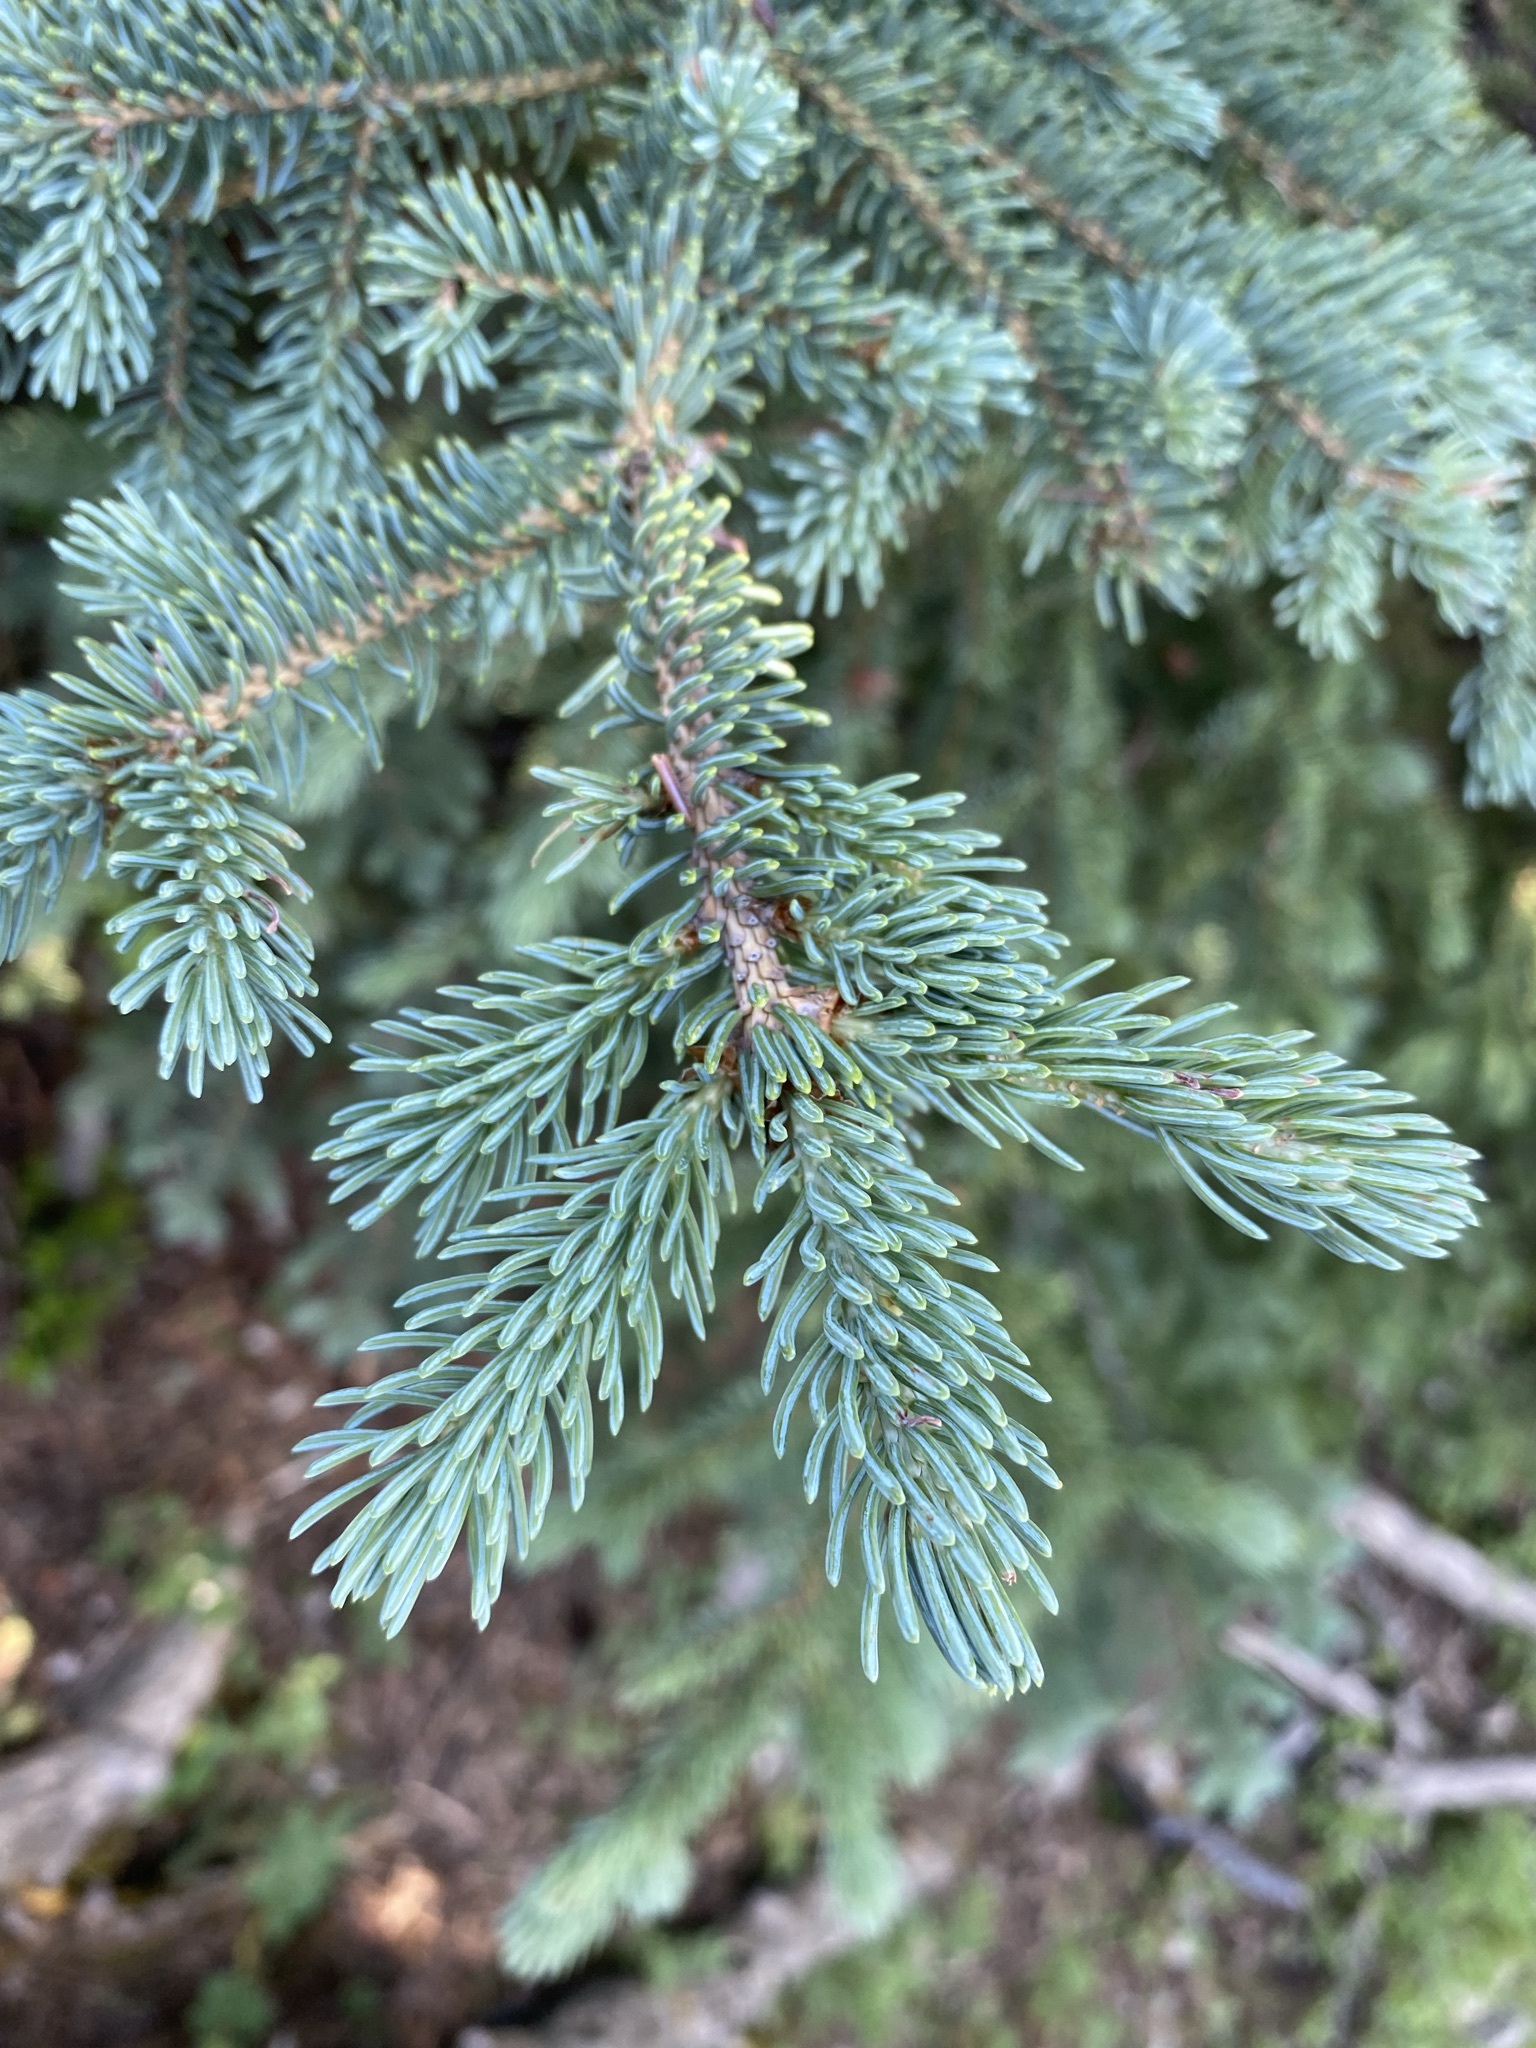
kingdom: Plantae
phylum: Tracheophyta
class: Pinopsida
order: Pinales
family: Pinaceae
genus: Picea
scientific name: Picea glauca
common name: White spruce
